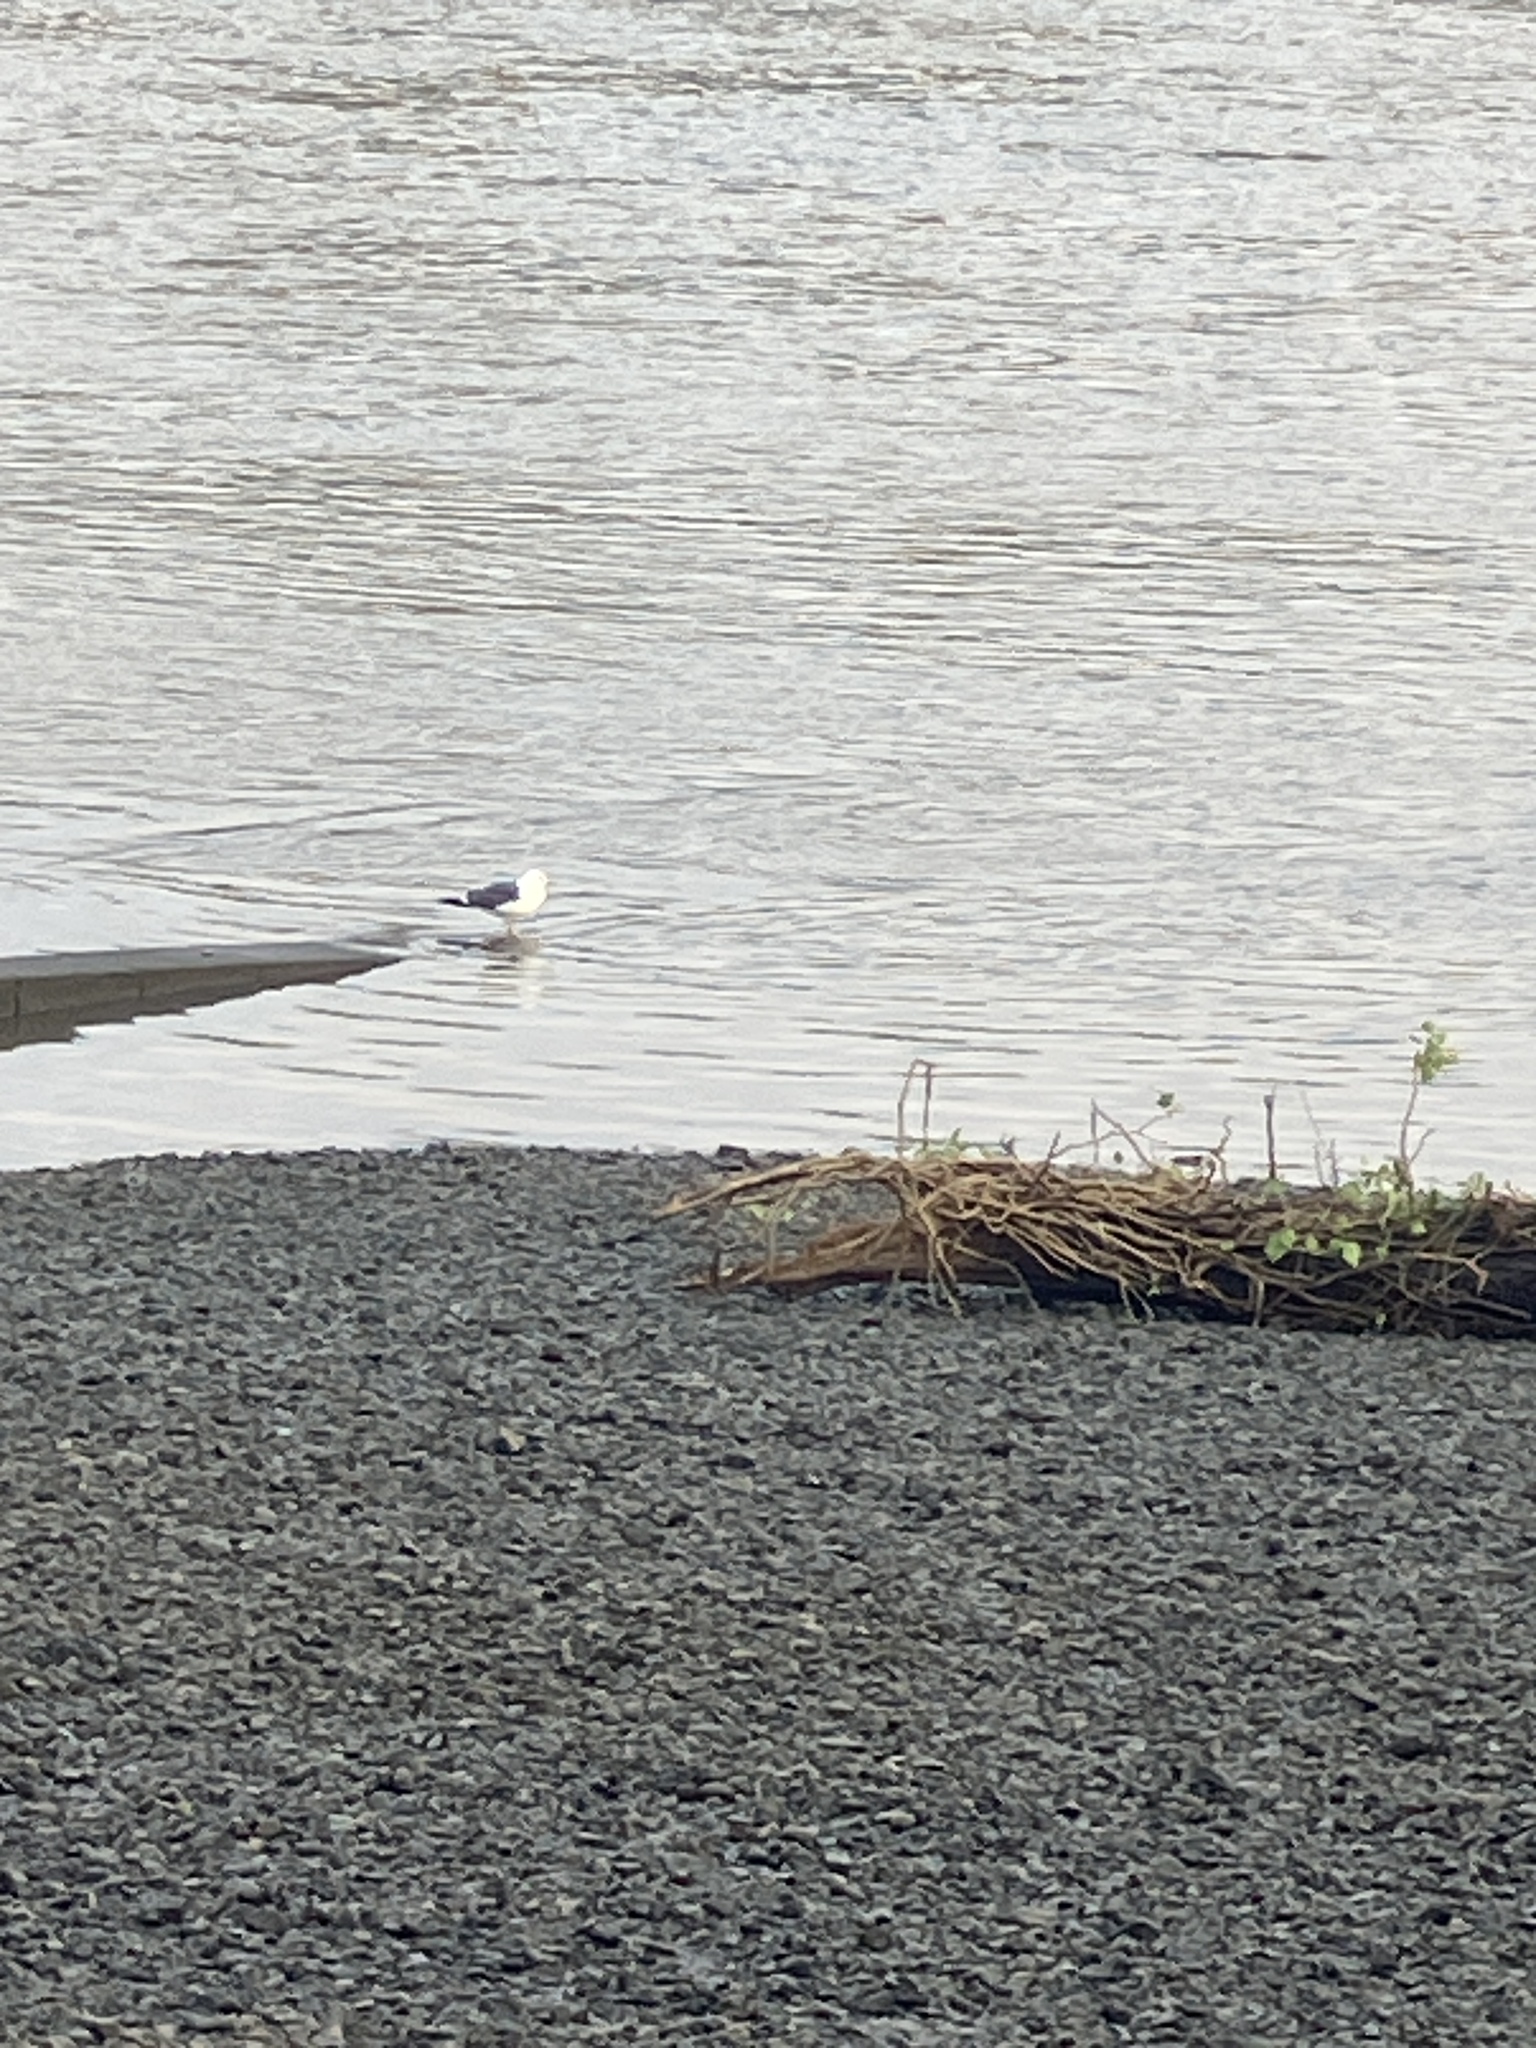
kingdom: Animalia
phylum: Chordata
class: Aves
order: Charadriiformes
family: Laridae
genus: Larus
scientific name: Larus fuscus
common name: Lesser black-backed gull
